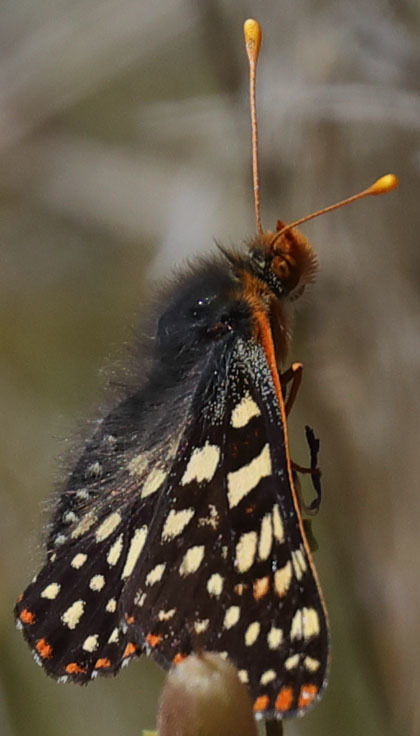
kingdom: Animalia
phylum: Arthropoda
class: Insecta
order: Lepidoptera
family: Nymphalidae
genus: Occidryas
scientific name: Occidryas chalcedona
